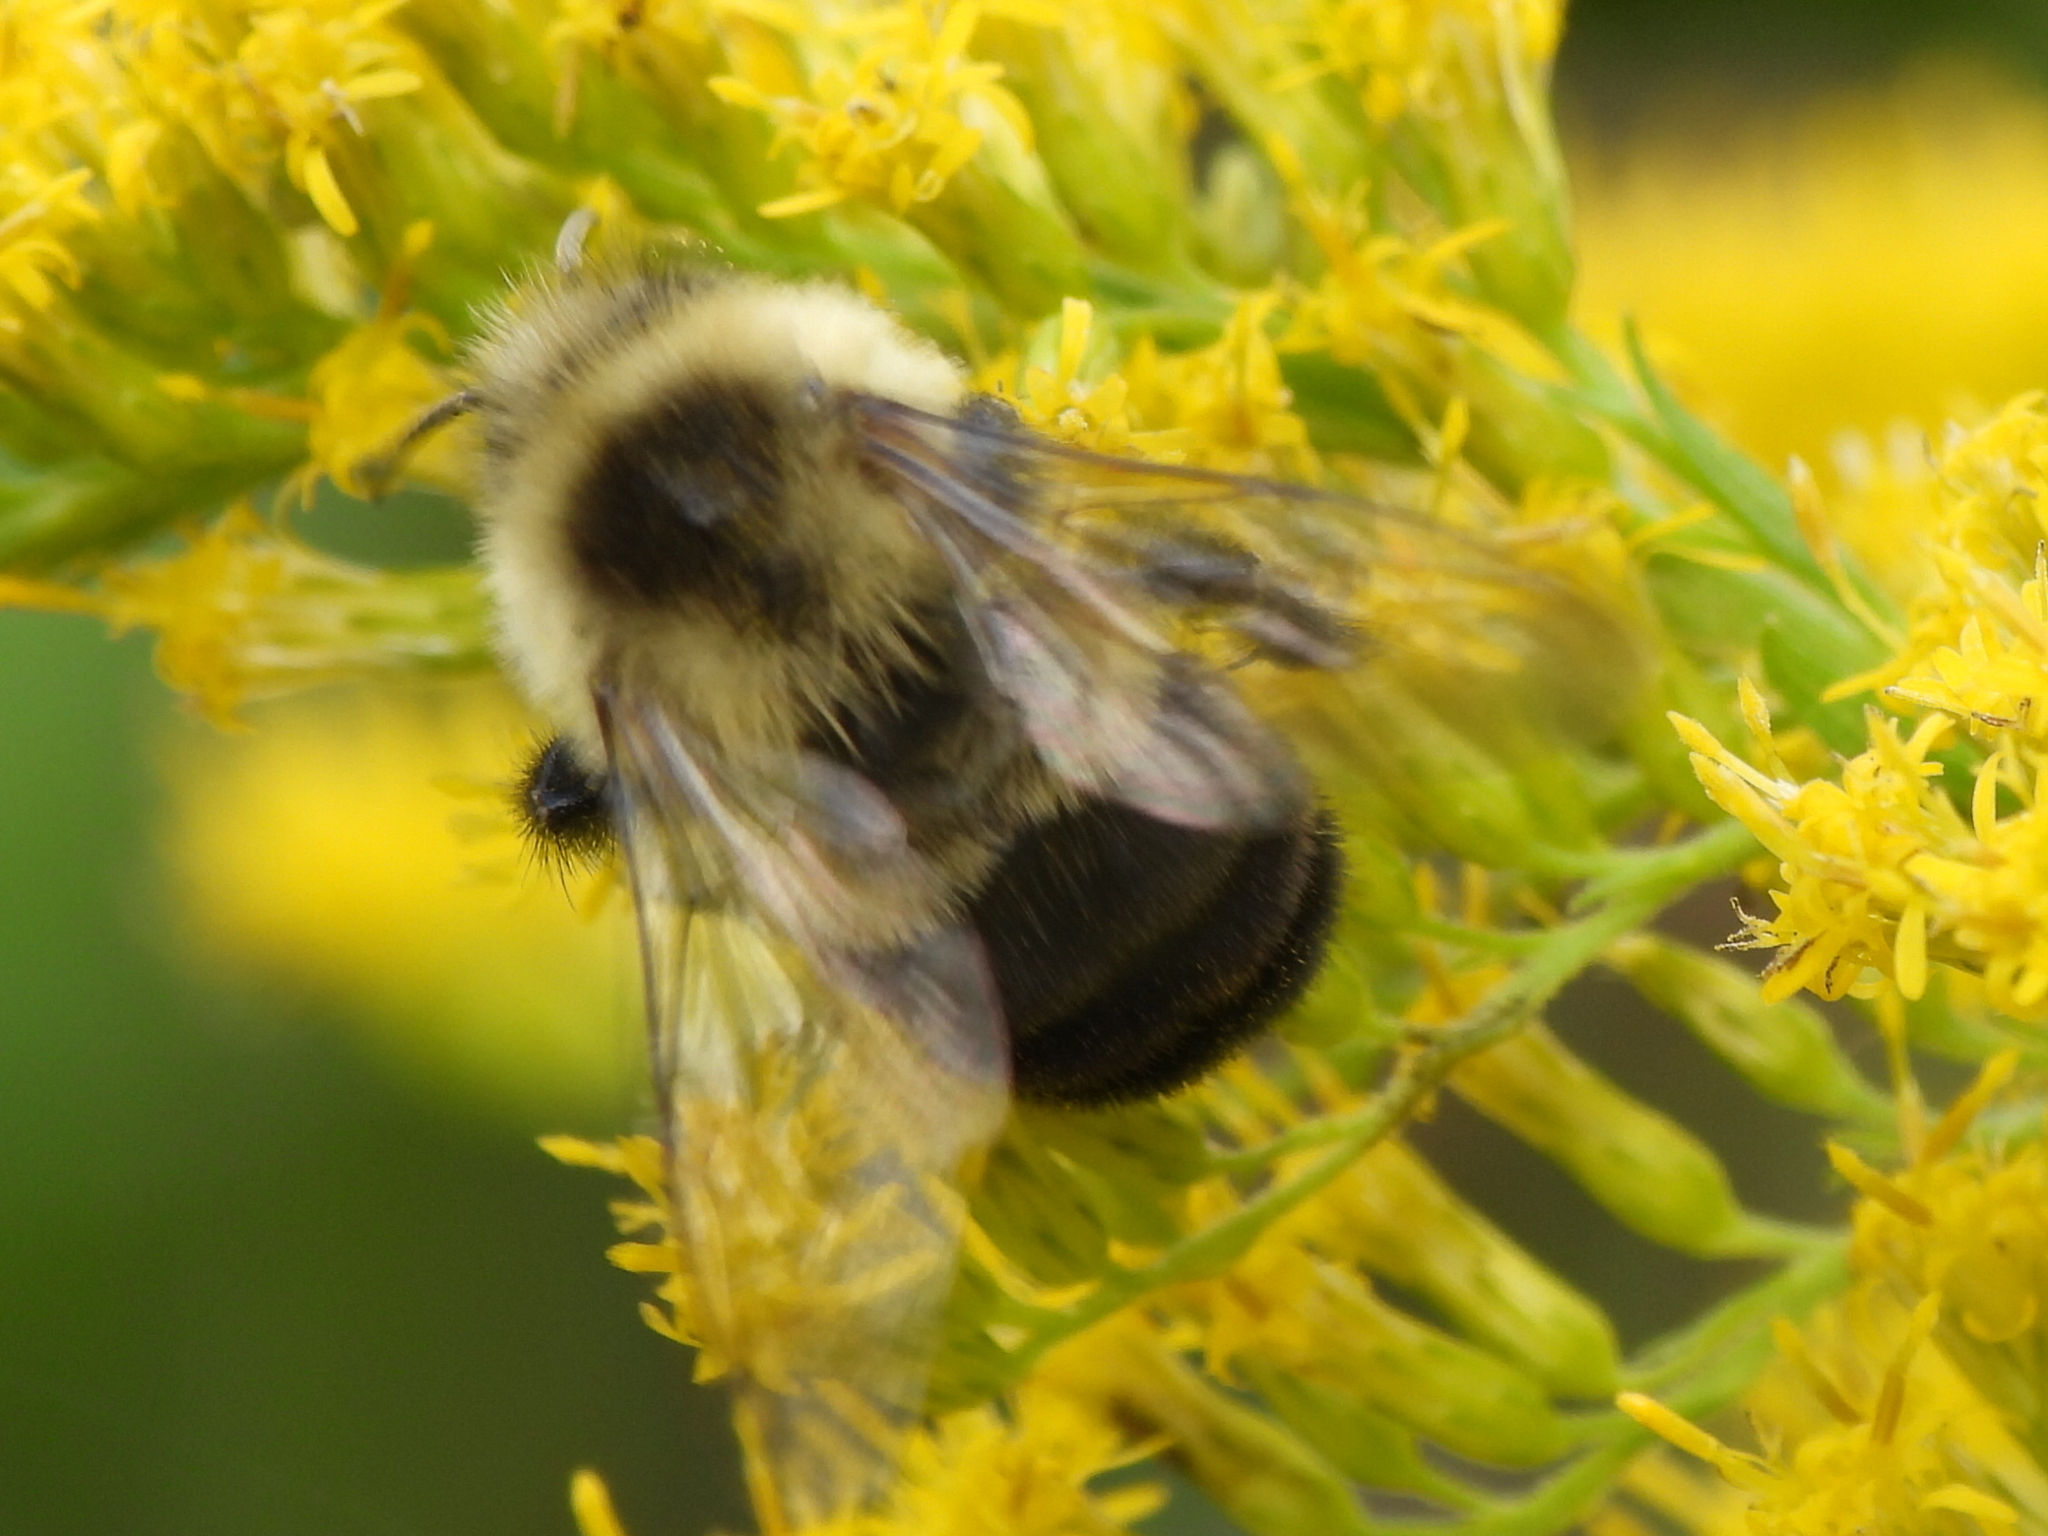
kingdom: Animalia
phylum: Arthropoda
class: Insecta
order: Hymenoptera
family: Apidae
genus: Bombus
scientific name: Bombus impatiens
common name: Common eastern bumble bee
